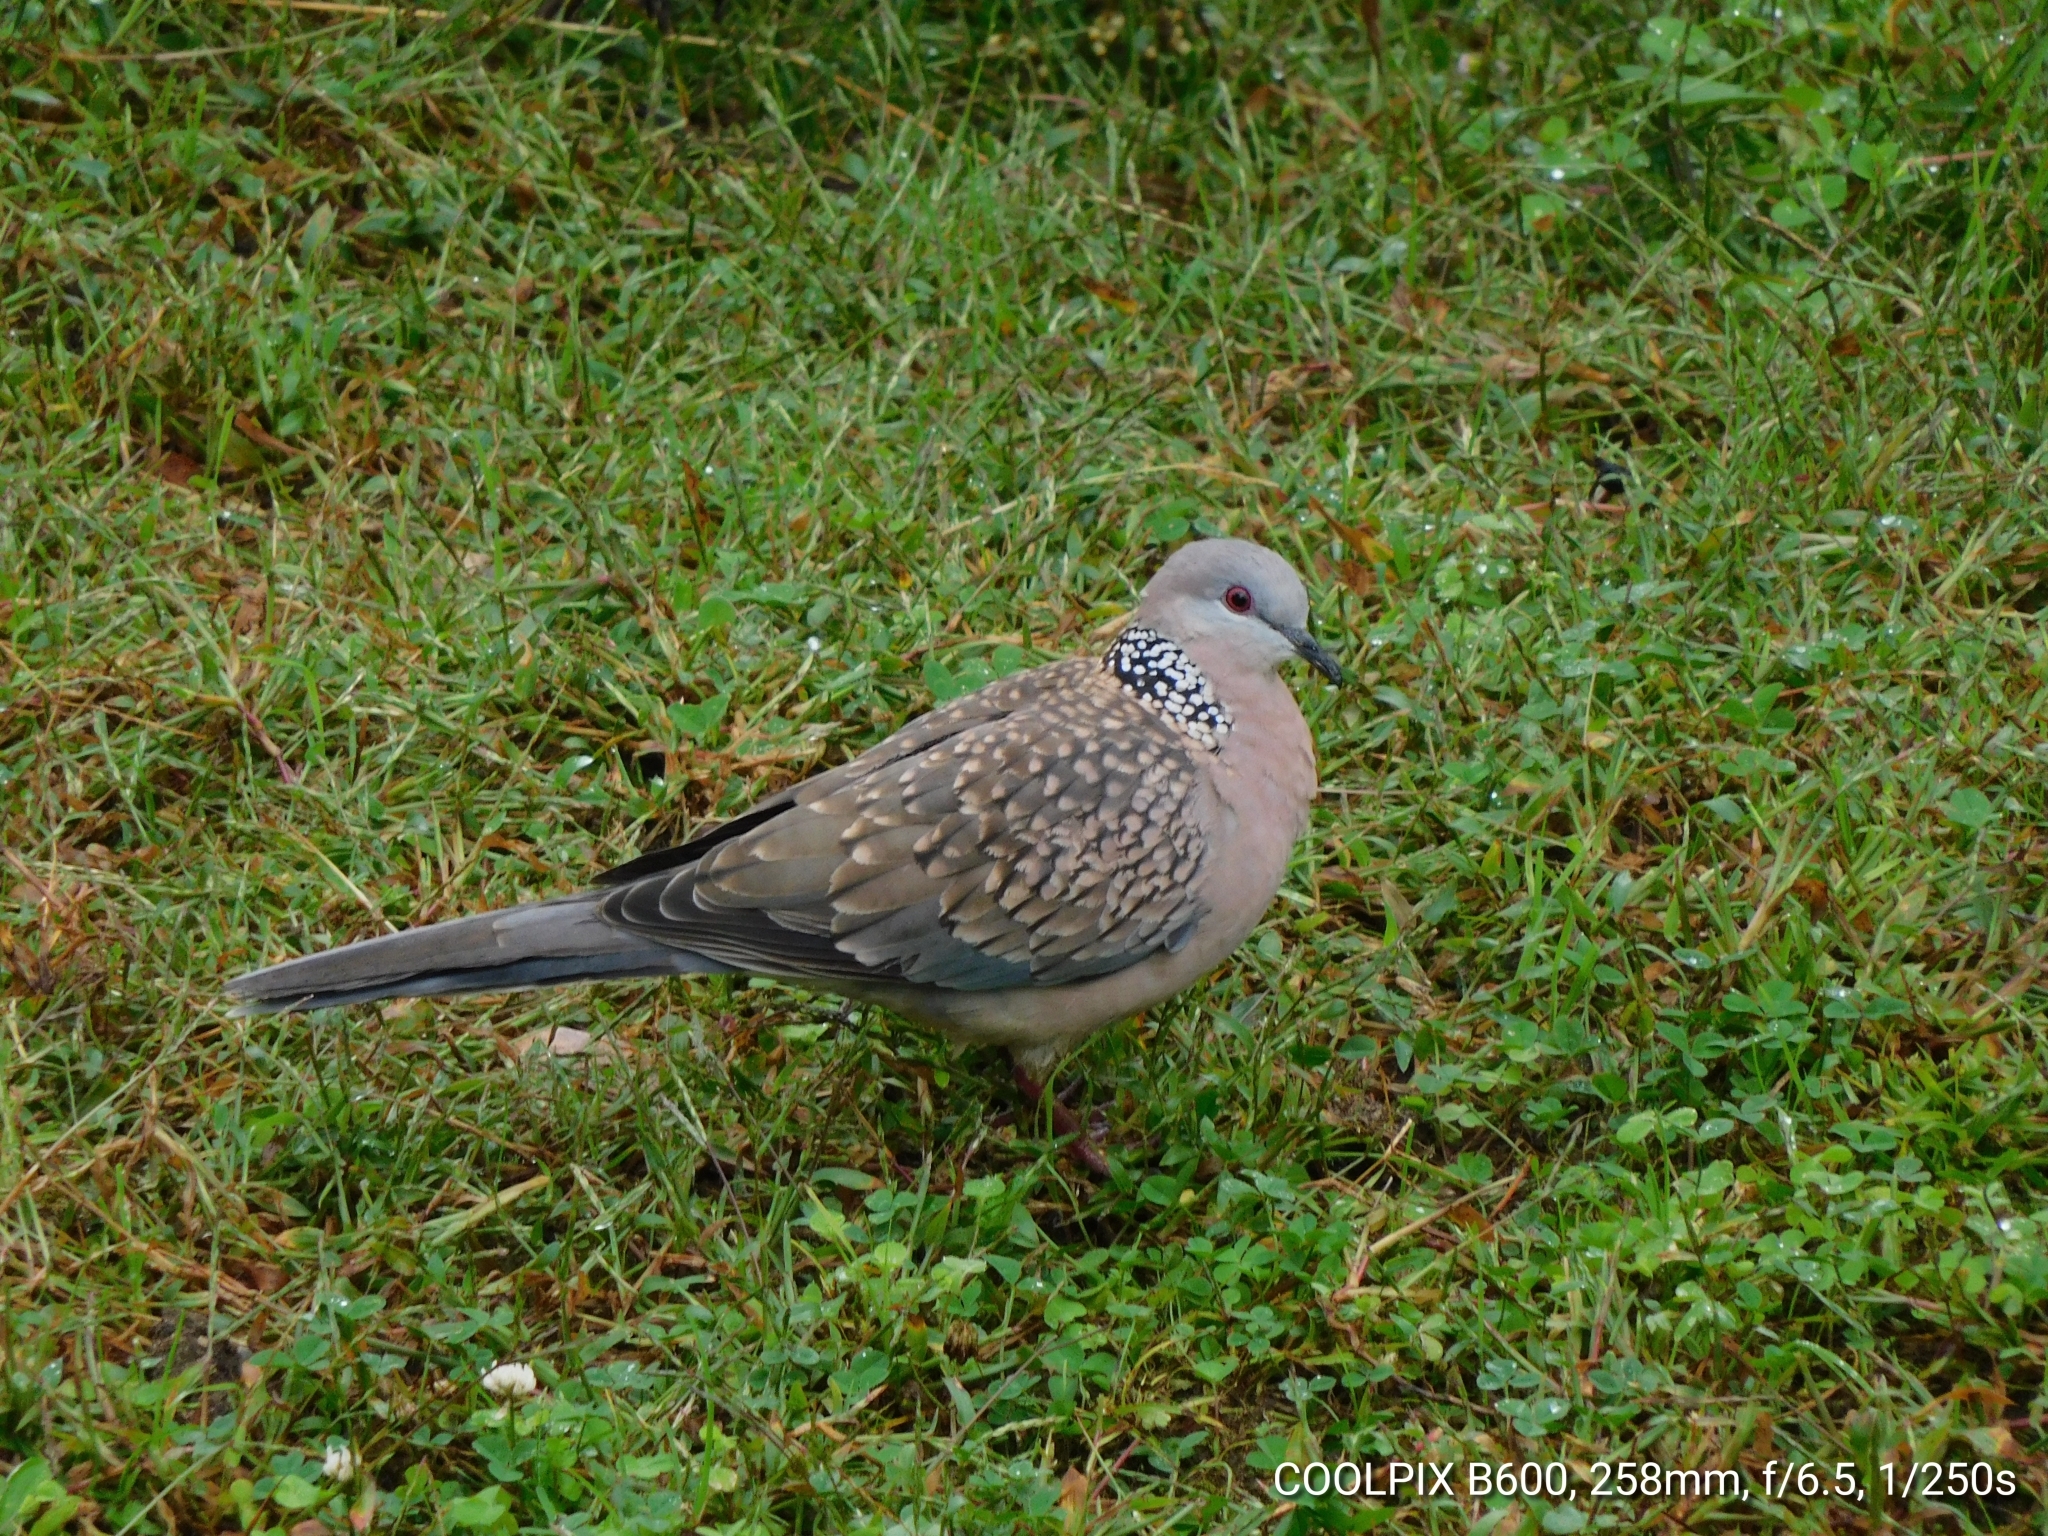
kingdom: Animalia
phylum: Chordata
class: Aves
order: Columbiformes
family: Columbidae
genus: Spilopelia
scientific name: Spilopelia chinensis
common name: Spotted dove
